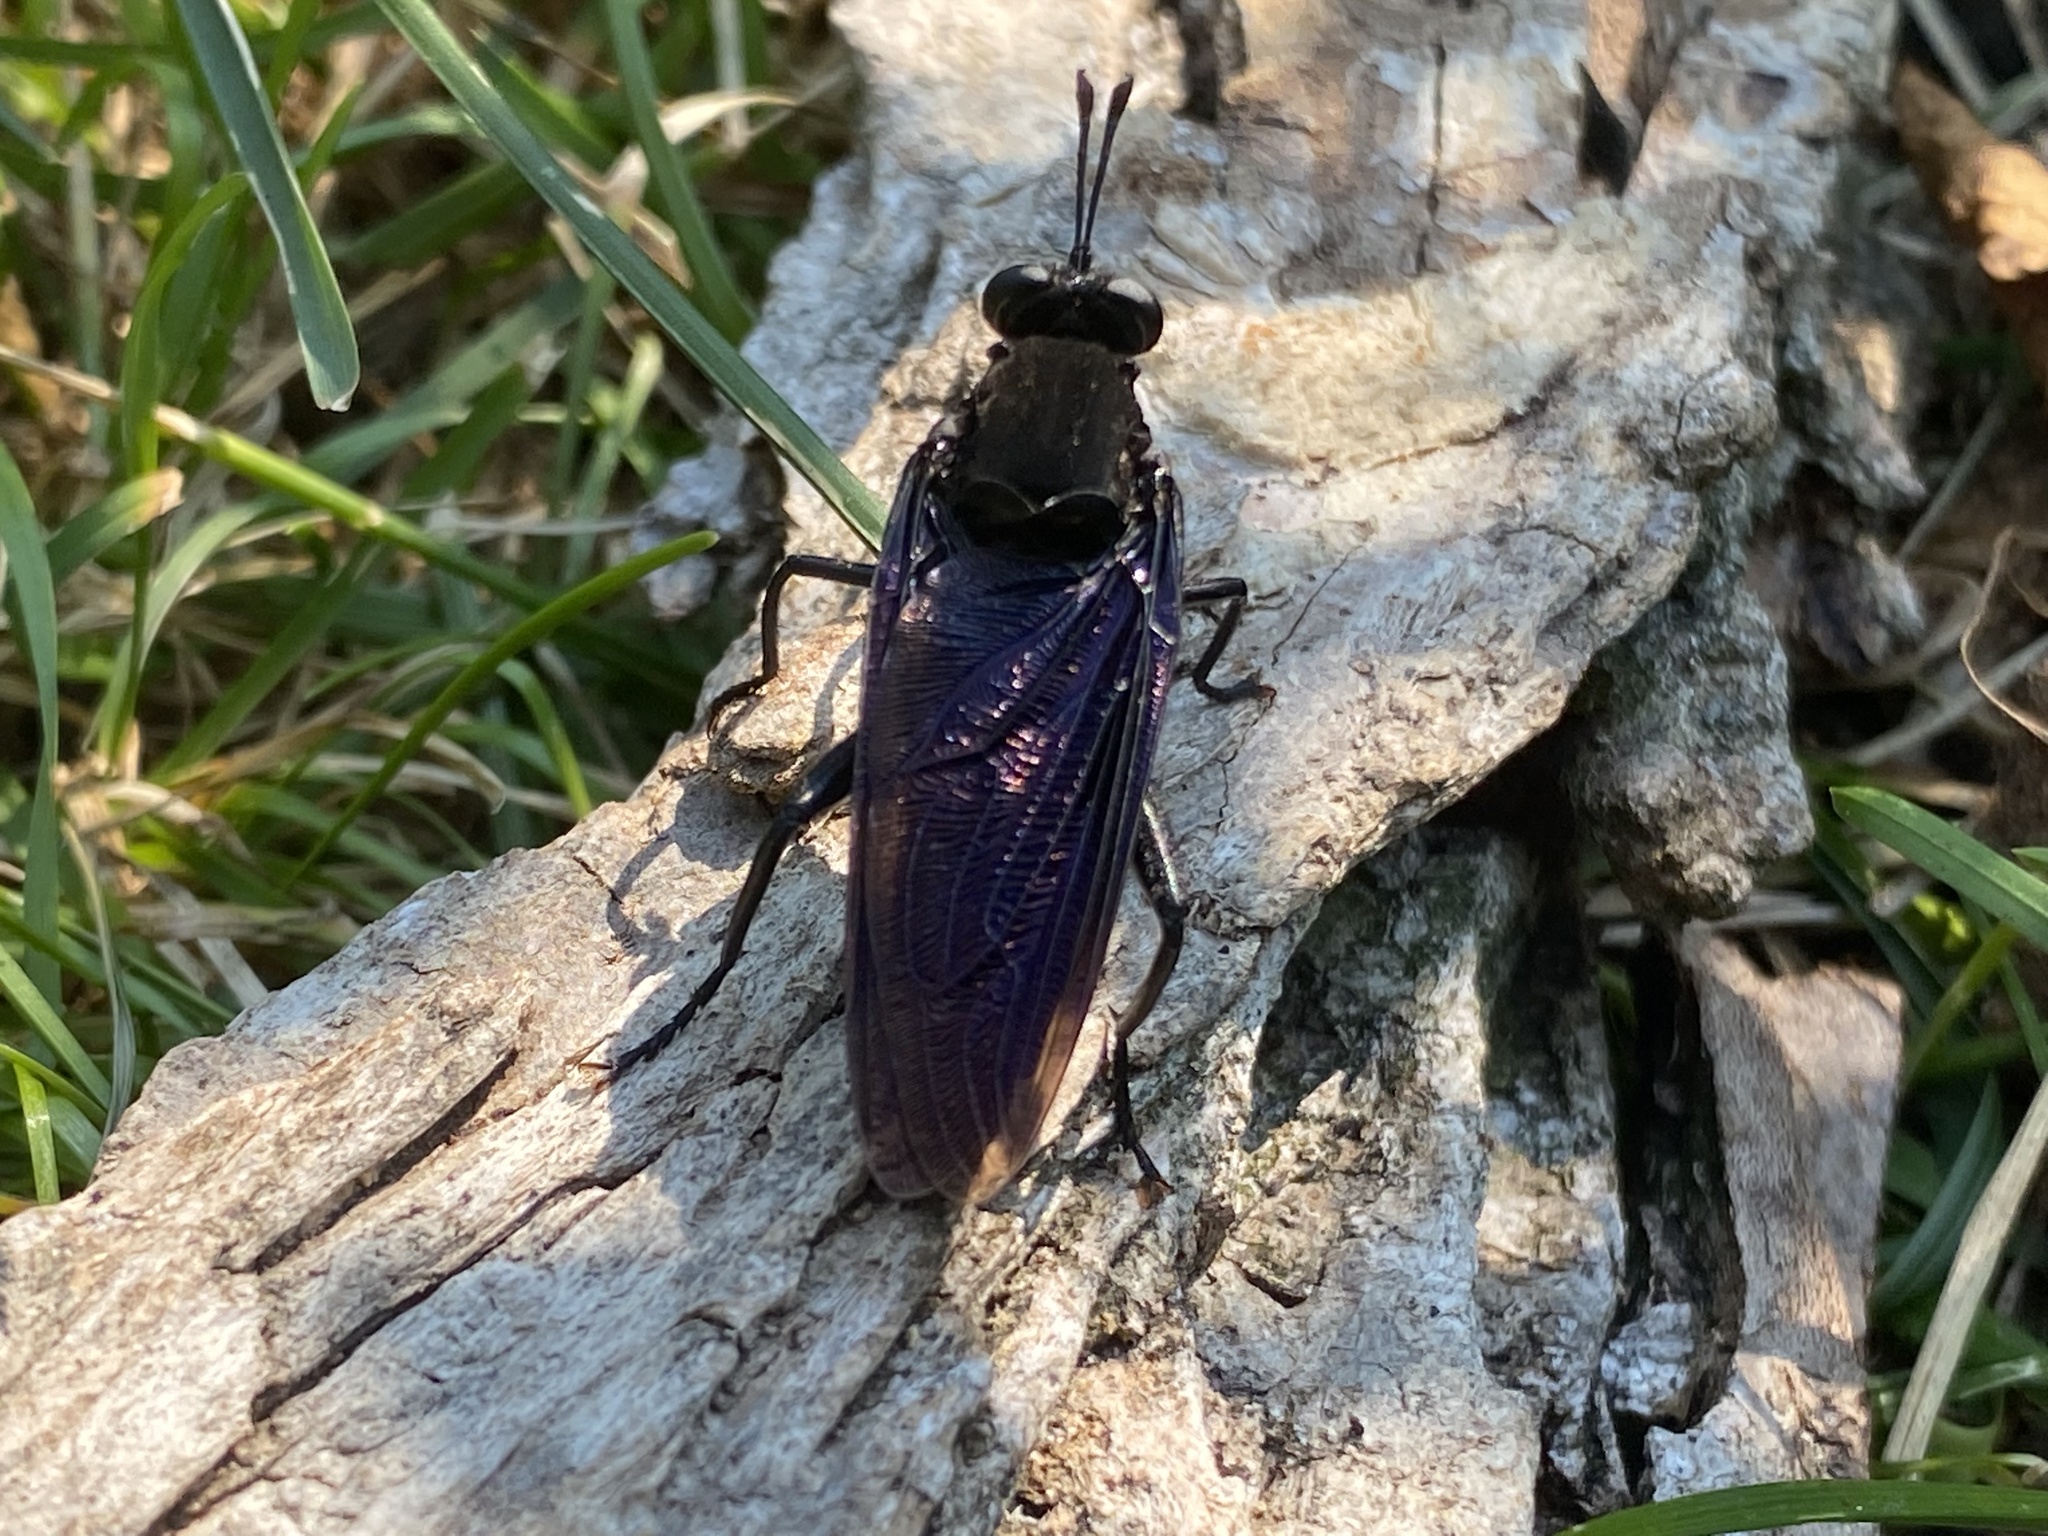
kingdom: Animalia
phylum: Arthropoda
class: Insecta
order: Diptera
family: Mydidae
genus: Mydas
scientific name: Mydas clavatus
